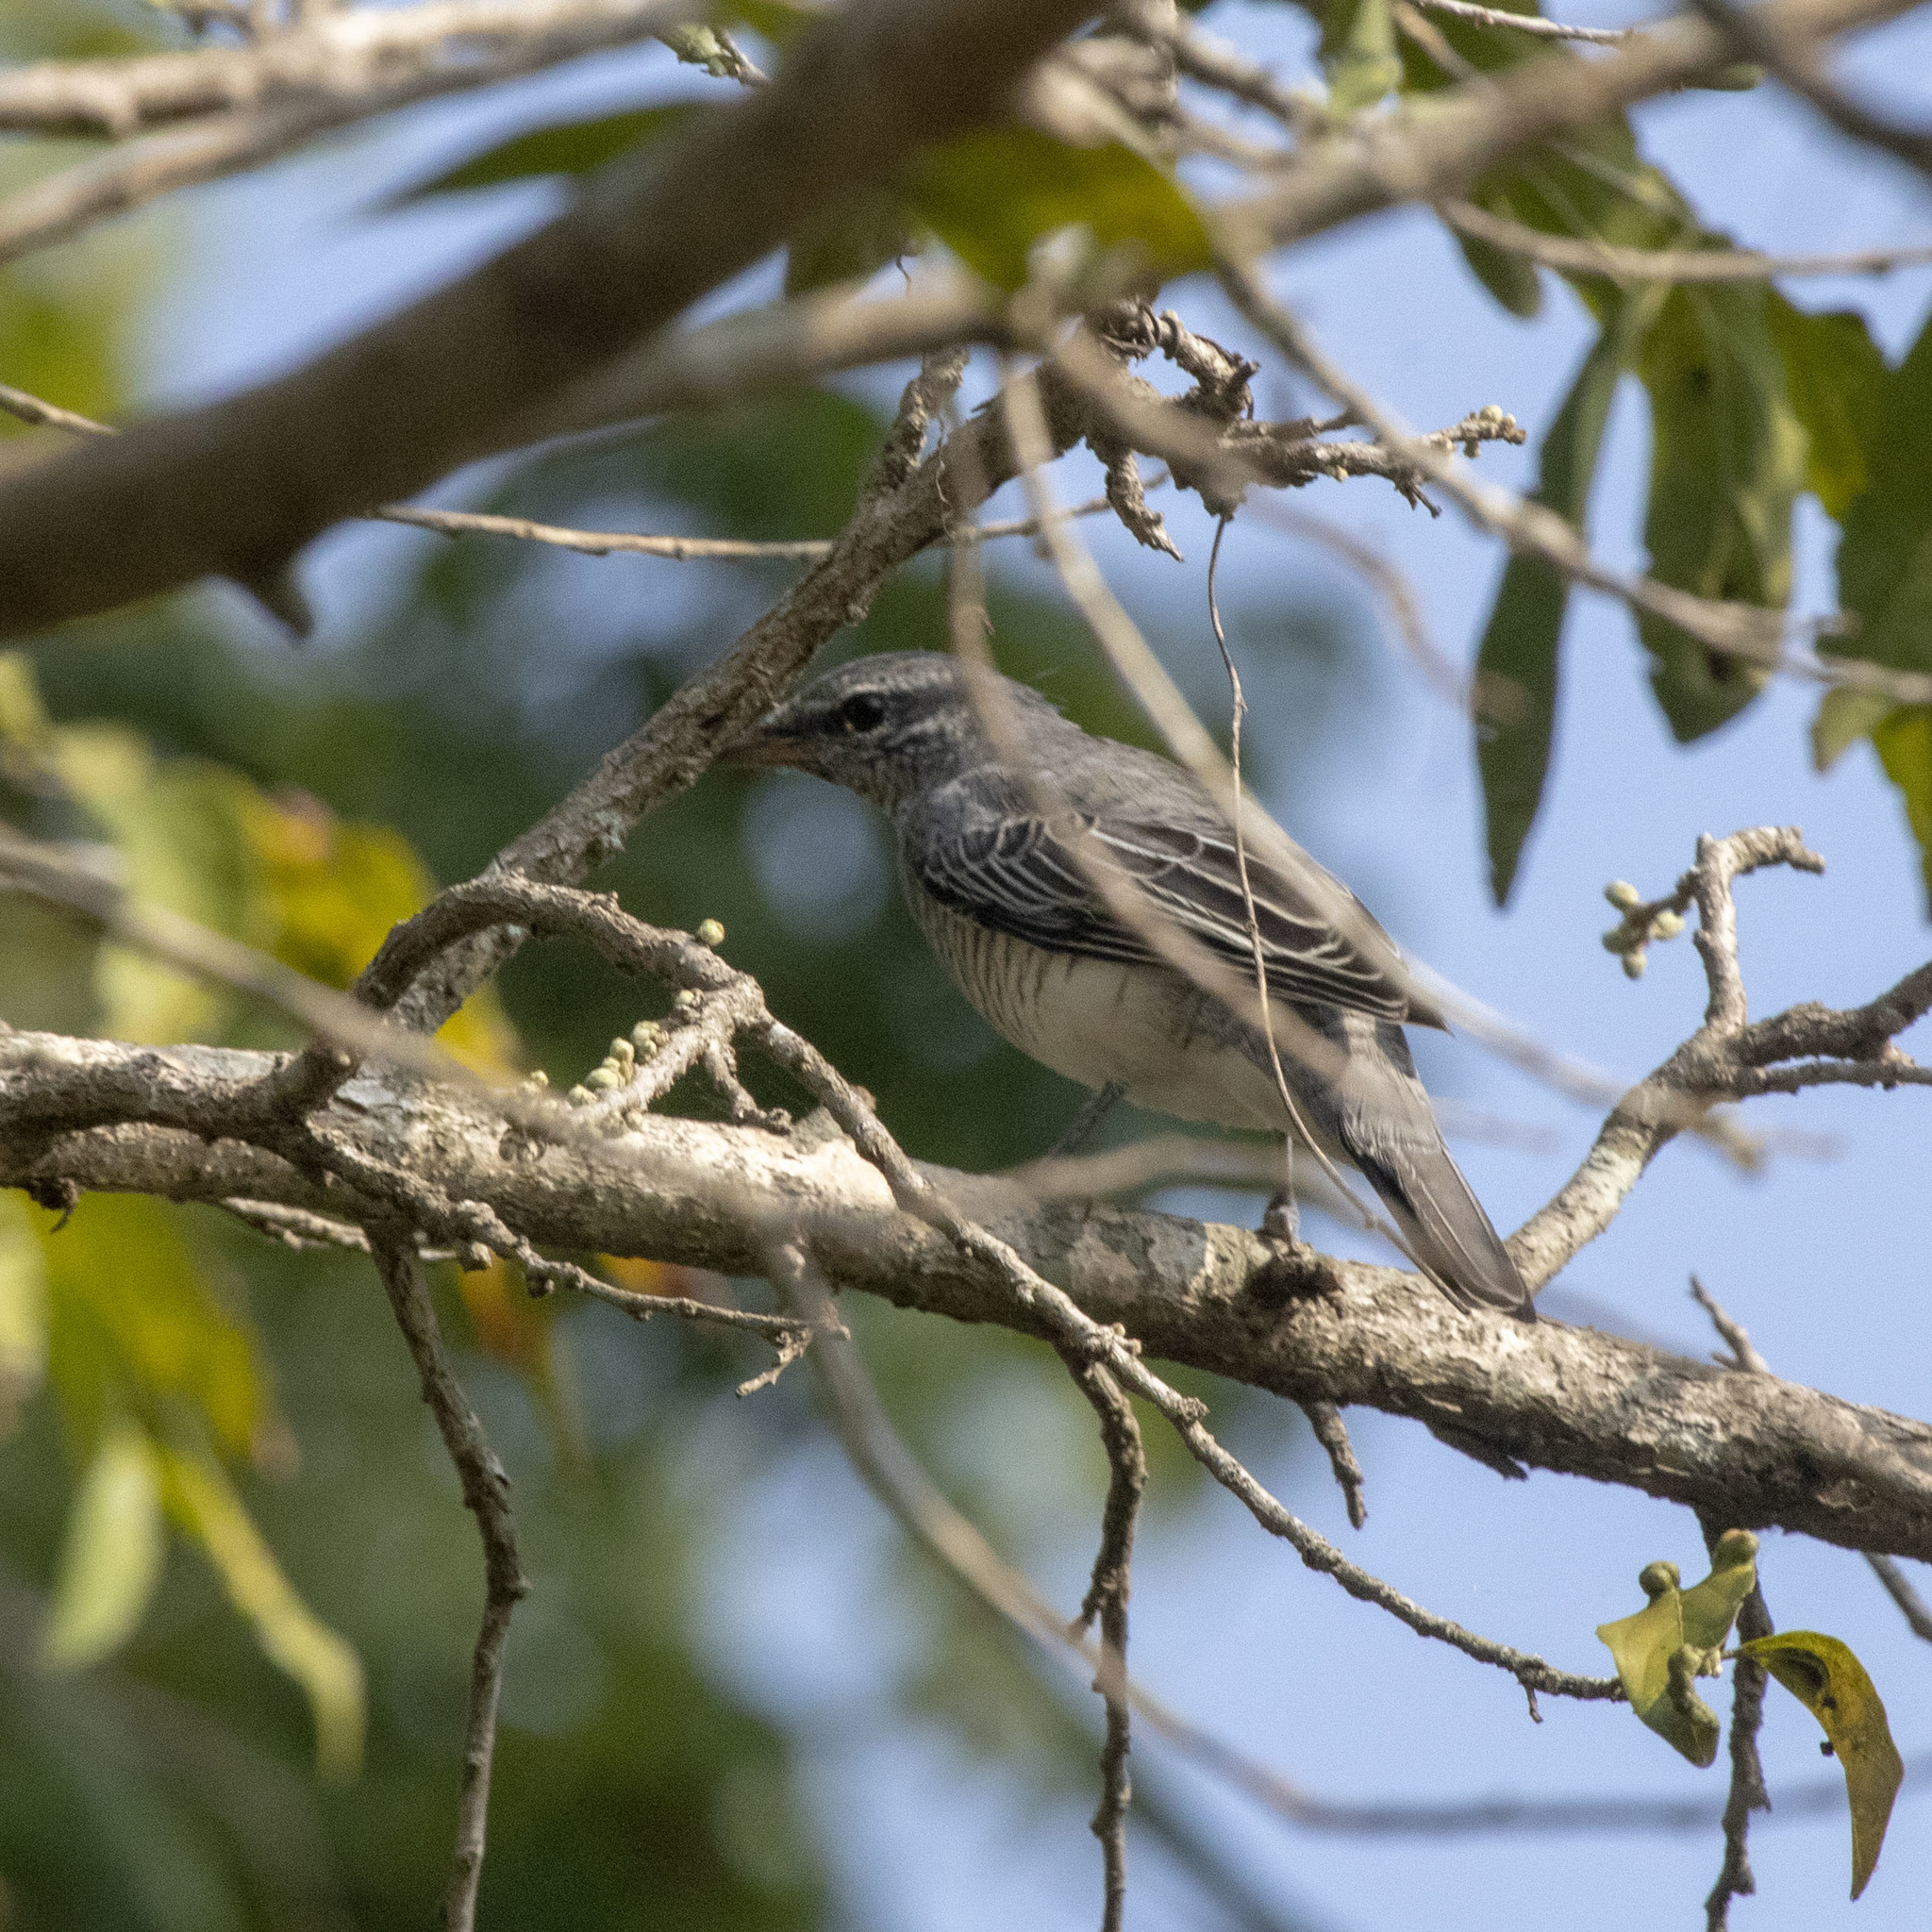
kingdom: Animalia
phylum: Chordata
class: Aves
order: Passeriformes
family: Campephagidae
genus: Coracina
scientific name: Coracina melanoptera
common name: Black-headed cuckooshrike
